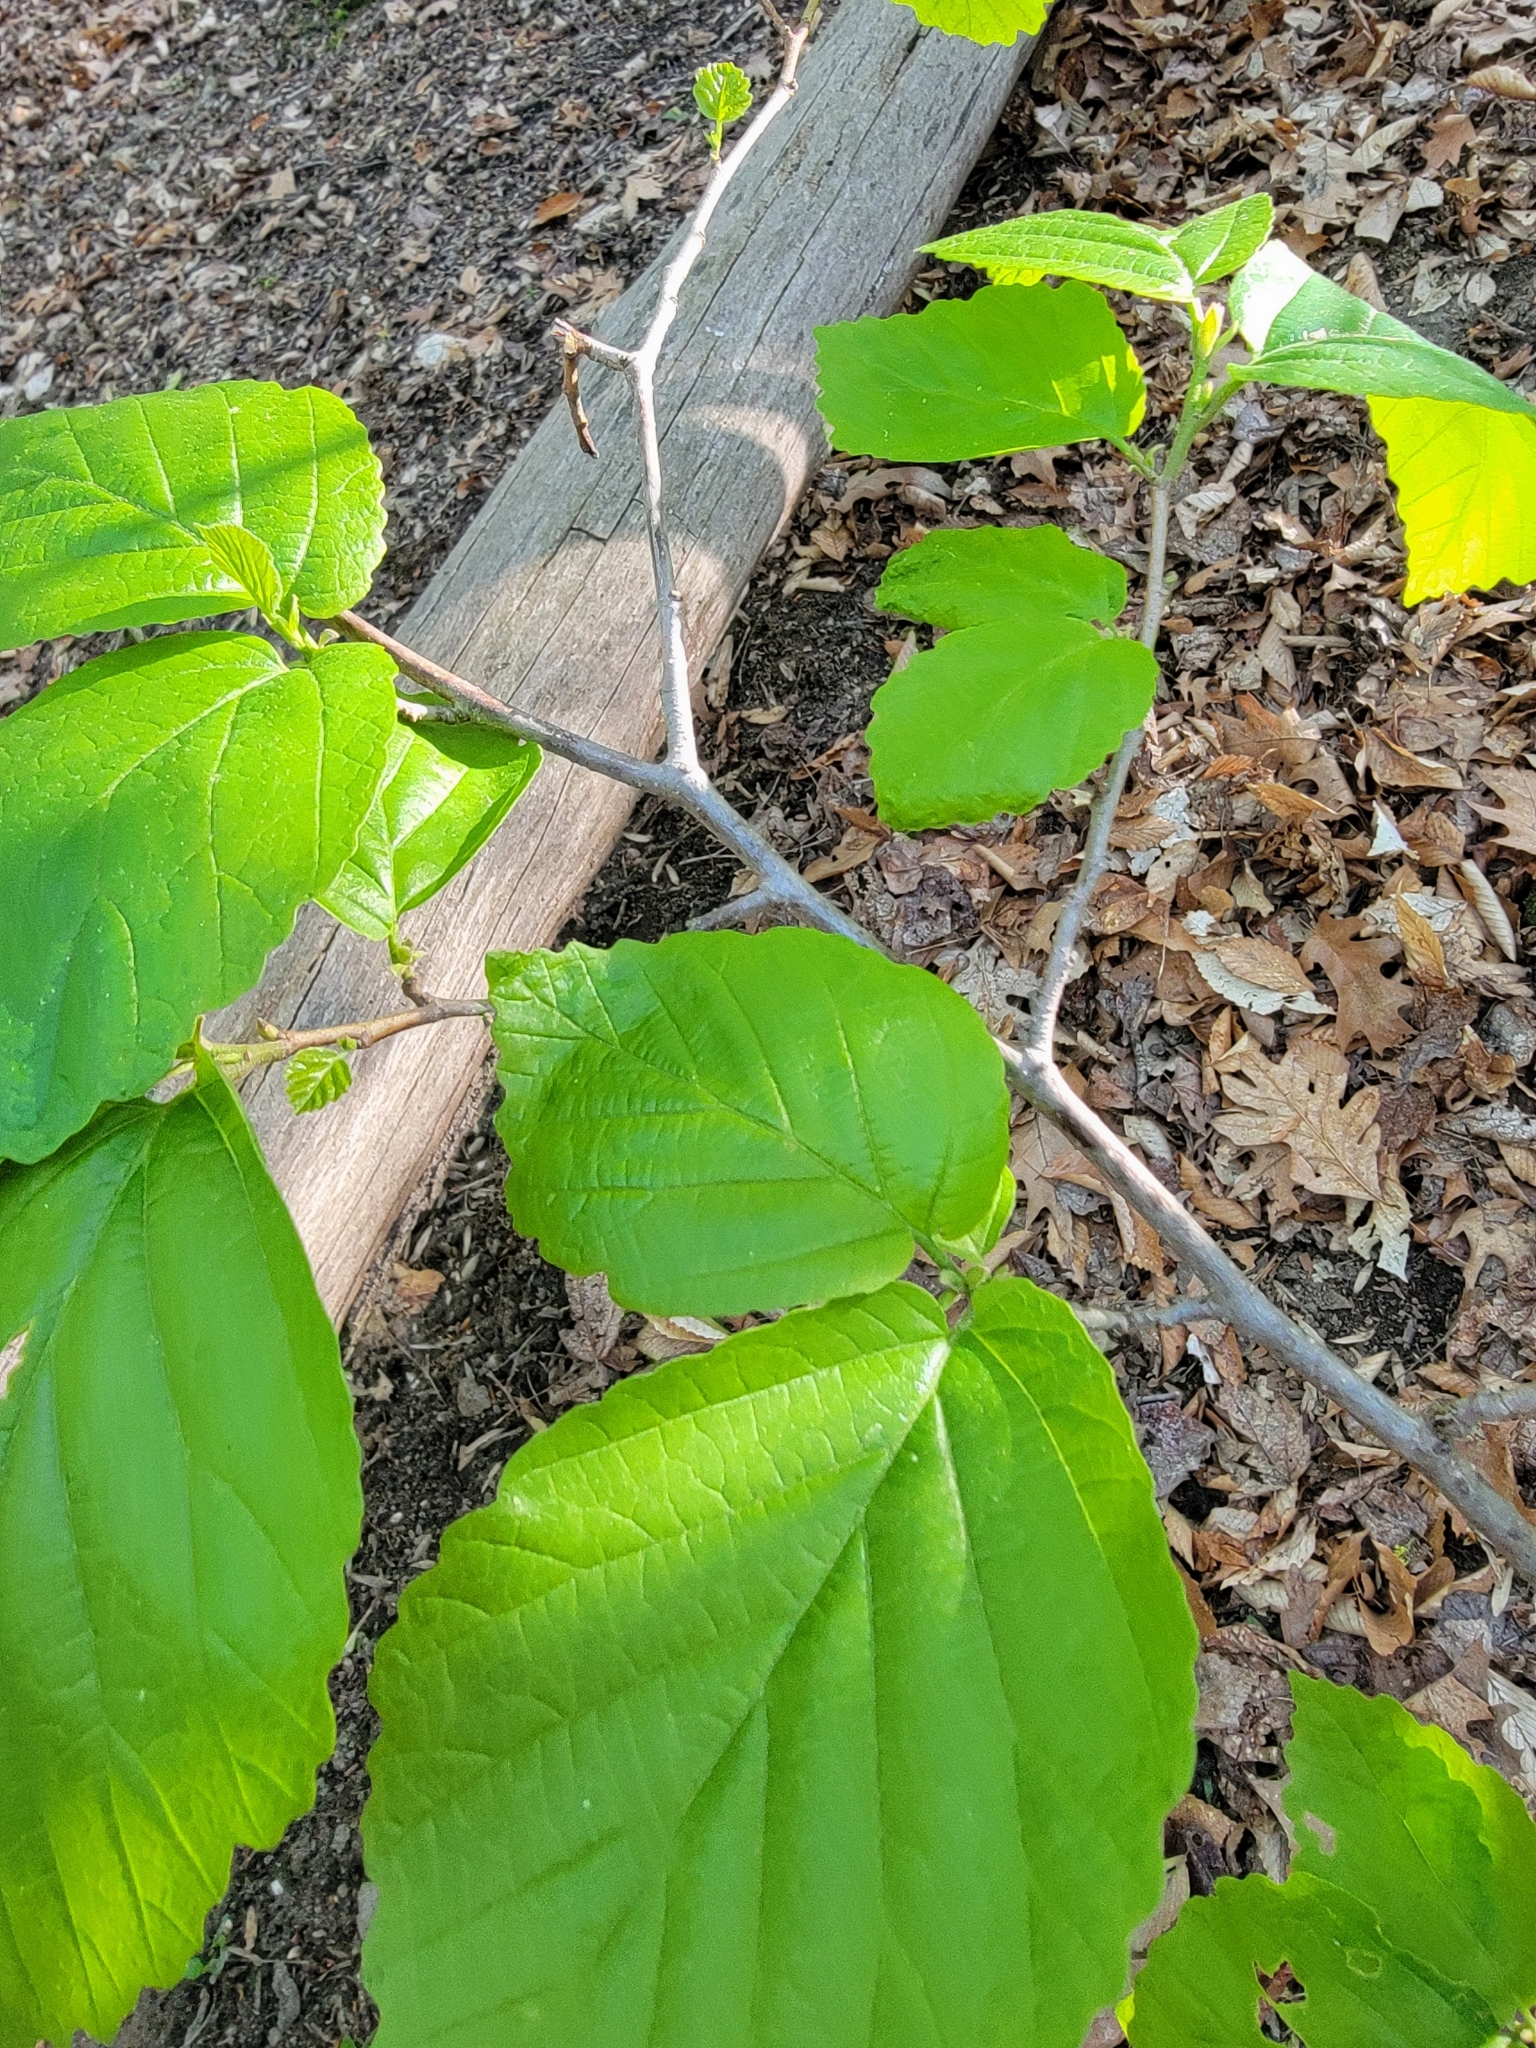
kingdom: Plantae
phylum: Tracheophyta
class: Magnoliopsida
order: Saxifragales
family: Hamamelidaceae
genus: Hamamelis
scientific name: Hamamelis virginiana
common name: Witch-hazel
